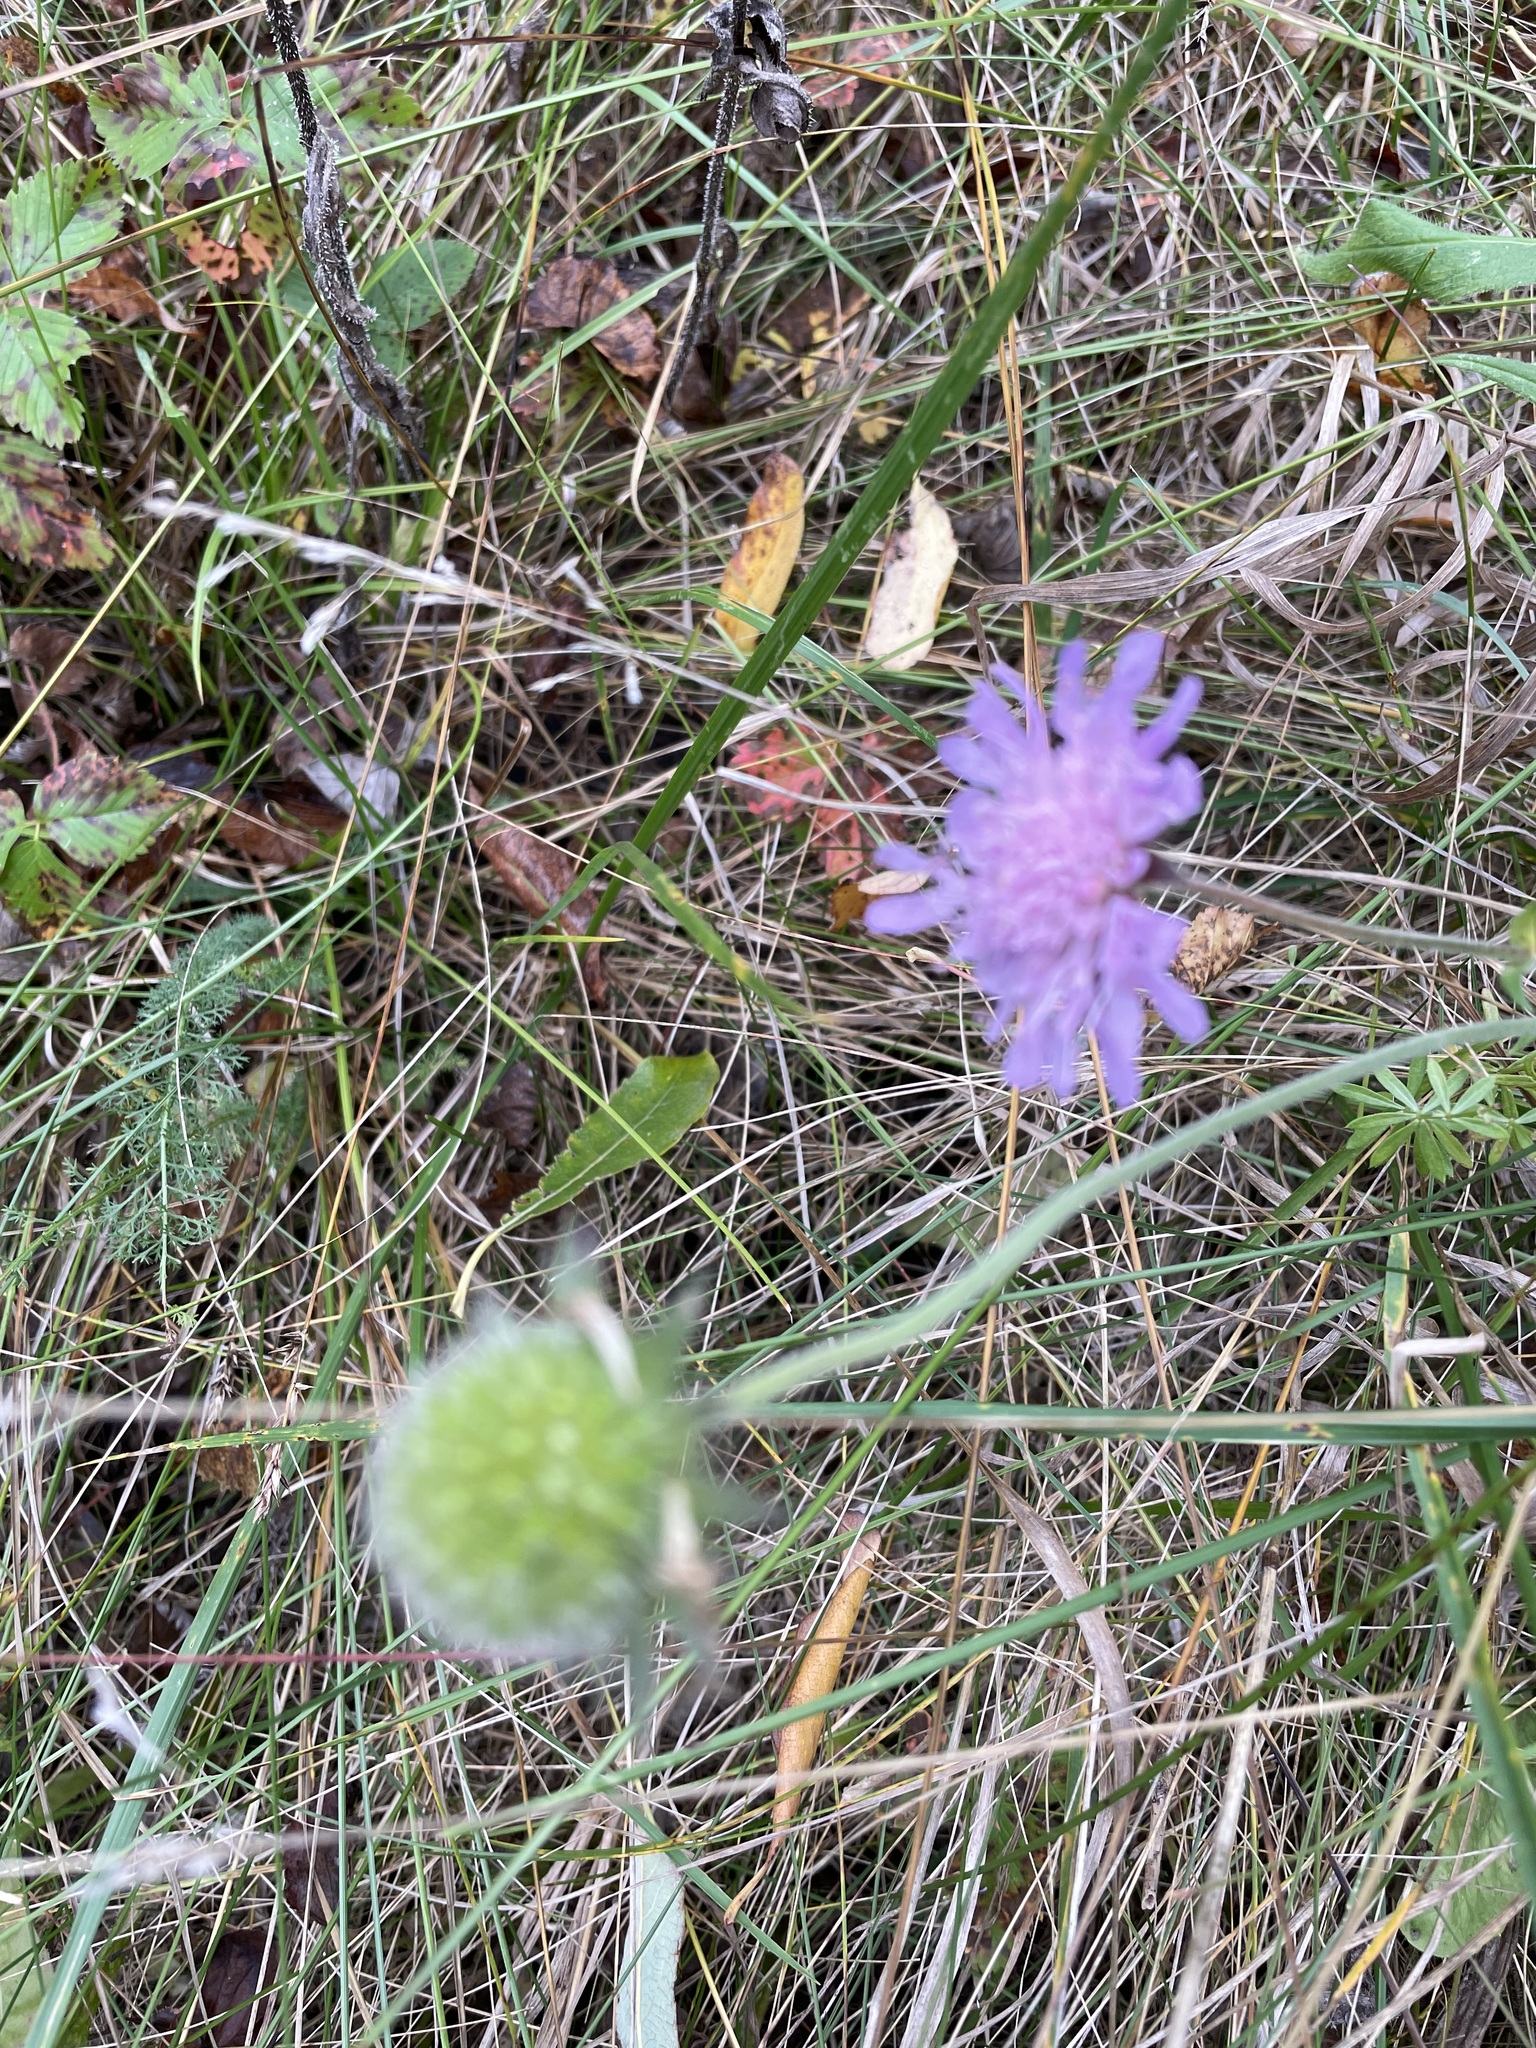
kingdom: Plantae
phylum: Tracheophyta
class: Magnoliopsida
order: Dipsacales
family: Caprifoliaceae
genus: Knautia
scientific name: Knautia arvensis
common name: Field scabiosa
